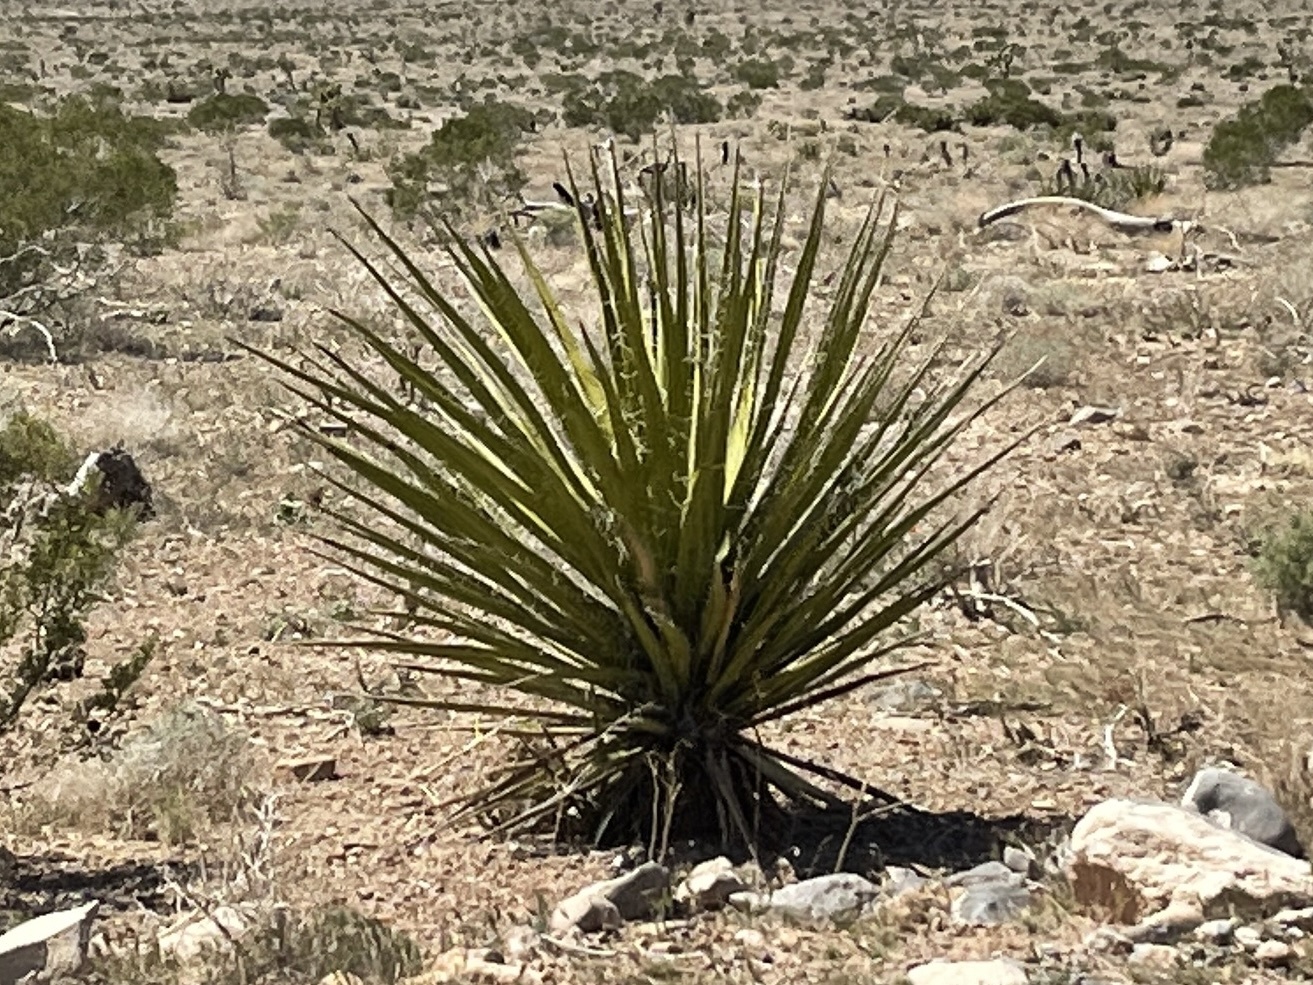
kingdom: Plantae
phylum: Tracheophyta
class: Liliopsida
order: Asparagales
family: Asparagaceae
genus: Yucca
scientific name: Yucca schidigera
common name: Mojave yucca
